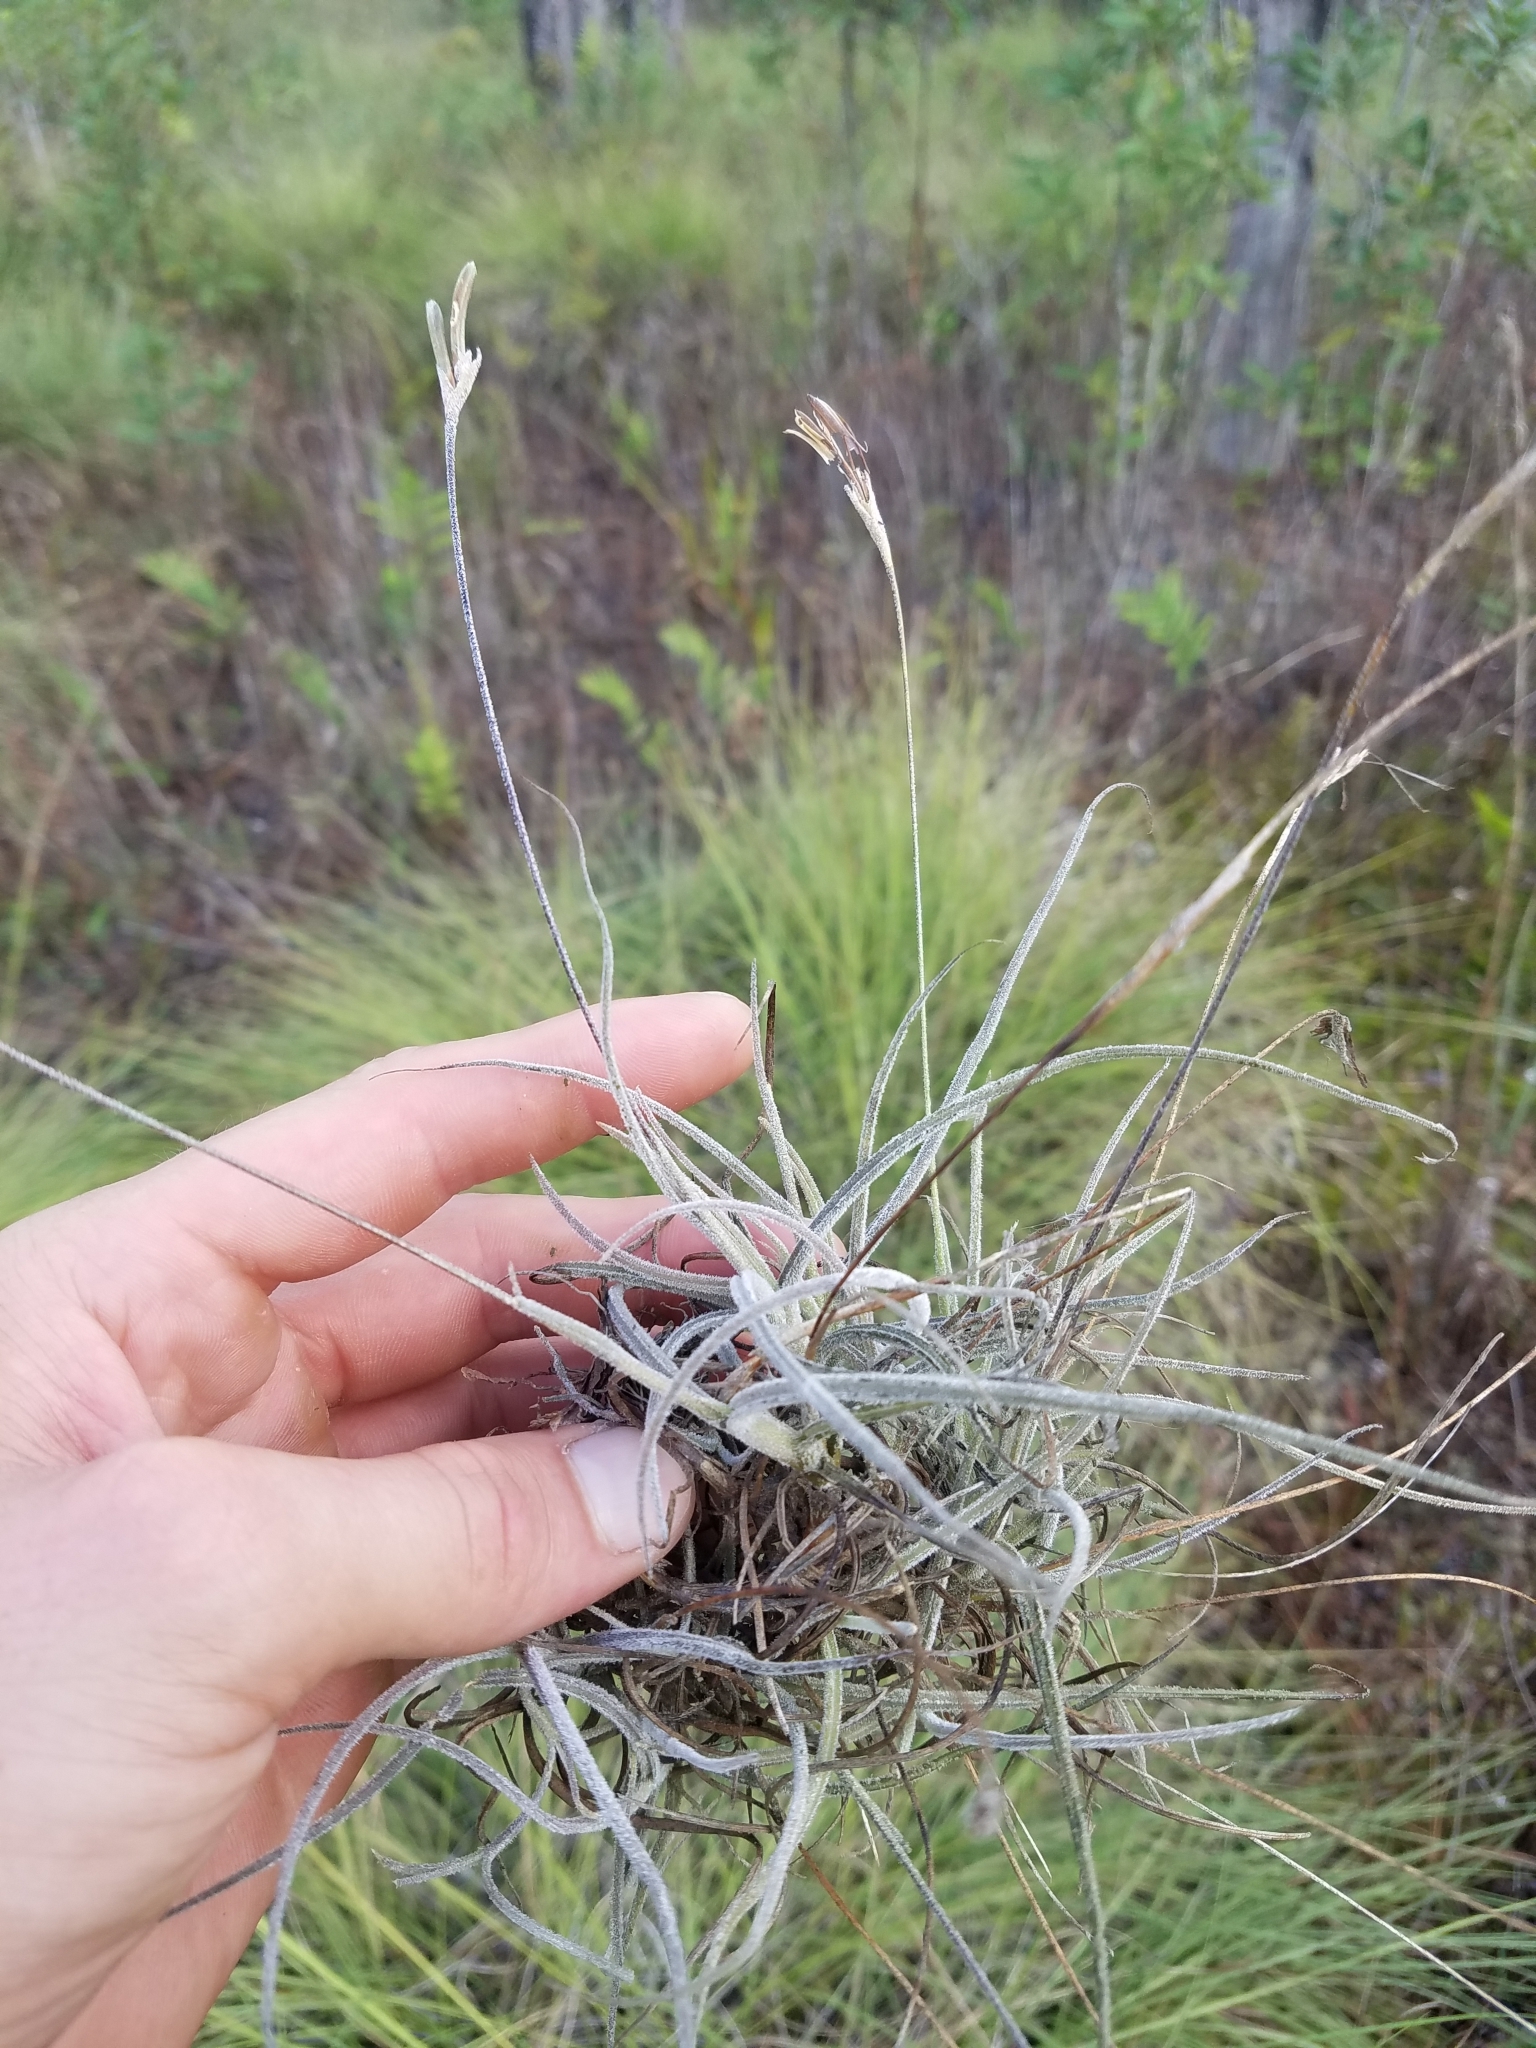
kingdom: Plantae
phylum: Tracheophyta
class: Liliopsida
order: Poales
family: Bromeliaceae
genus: Tillandsia
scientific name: Tillandsia recurvata
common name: Small ballmoss
